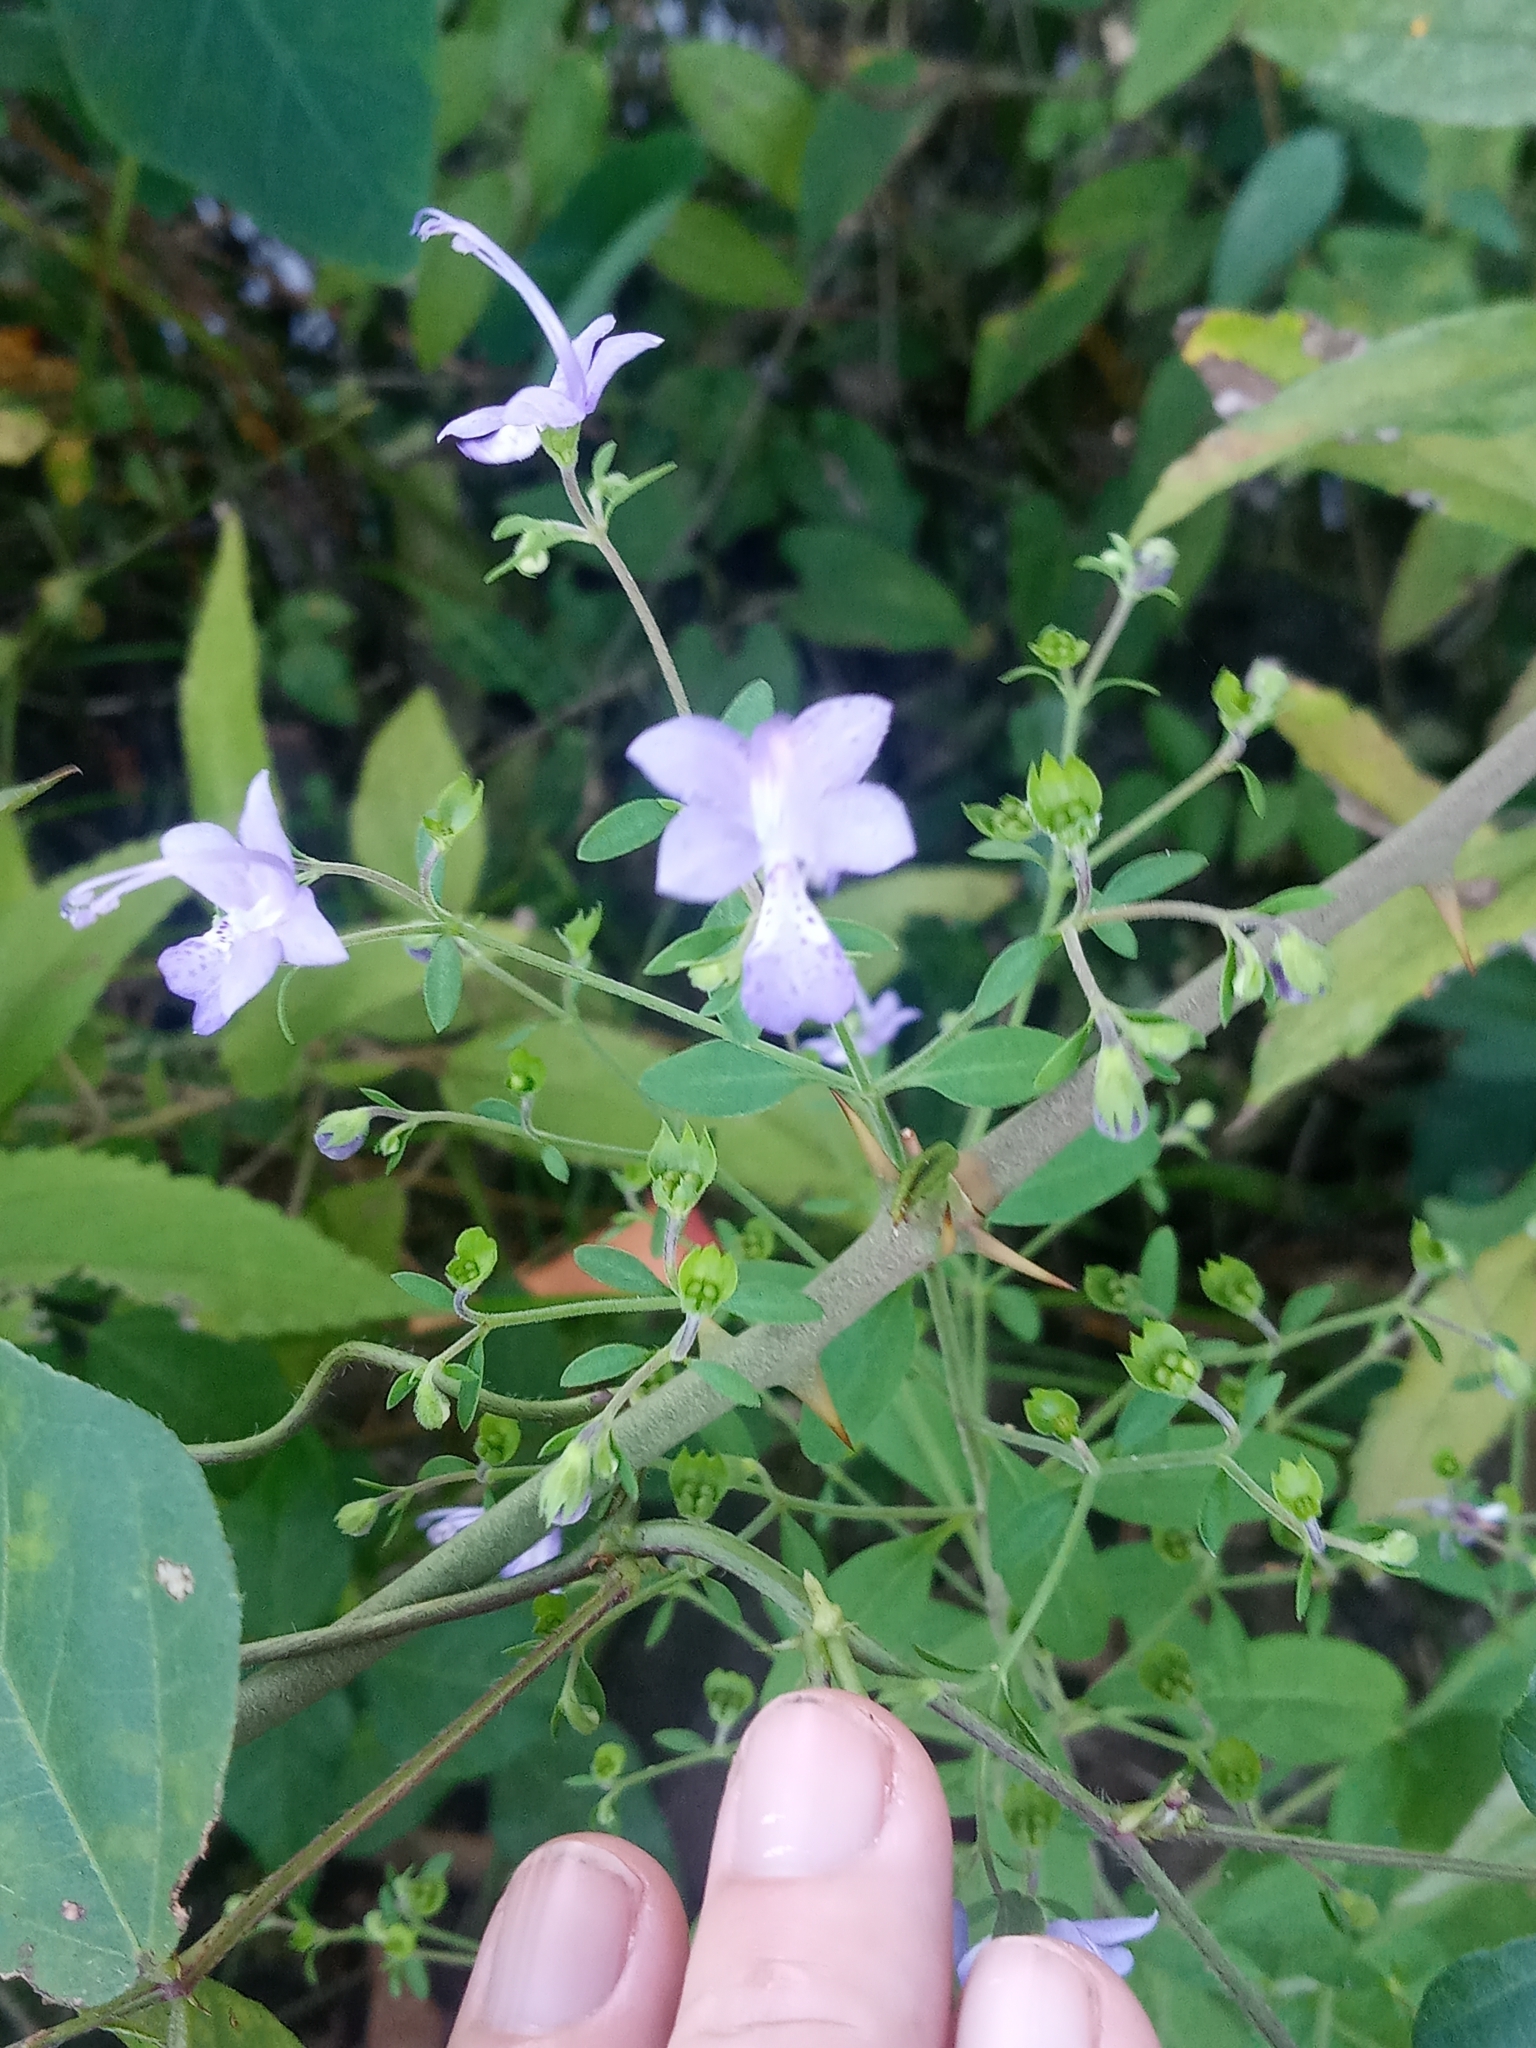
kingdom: Plantae
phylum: Tracheophyta
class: Magnoliopsida
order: Lamiales
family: Lamiaceae
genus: Trichostema
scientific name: Trichostema fruticosum
